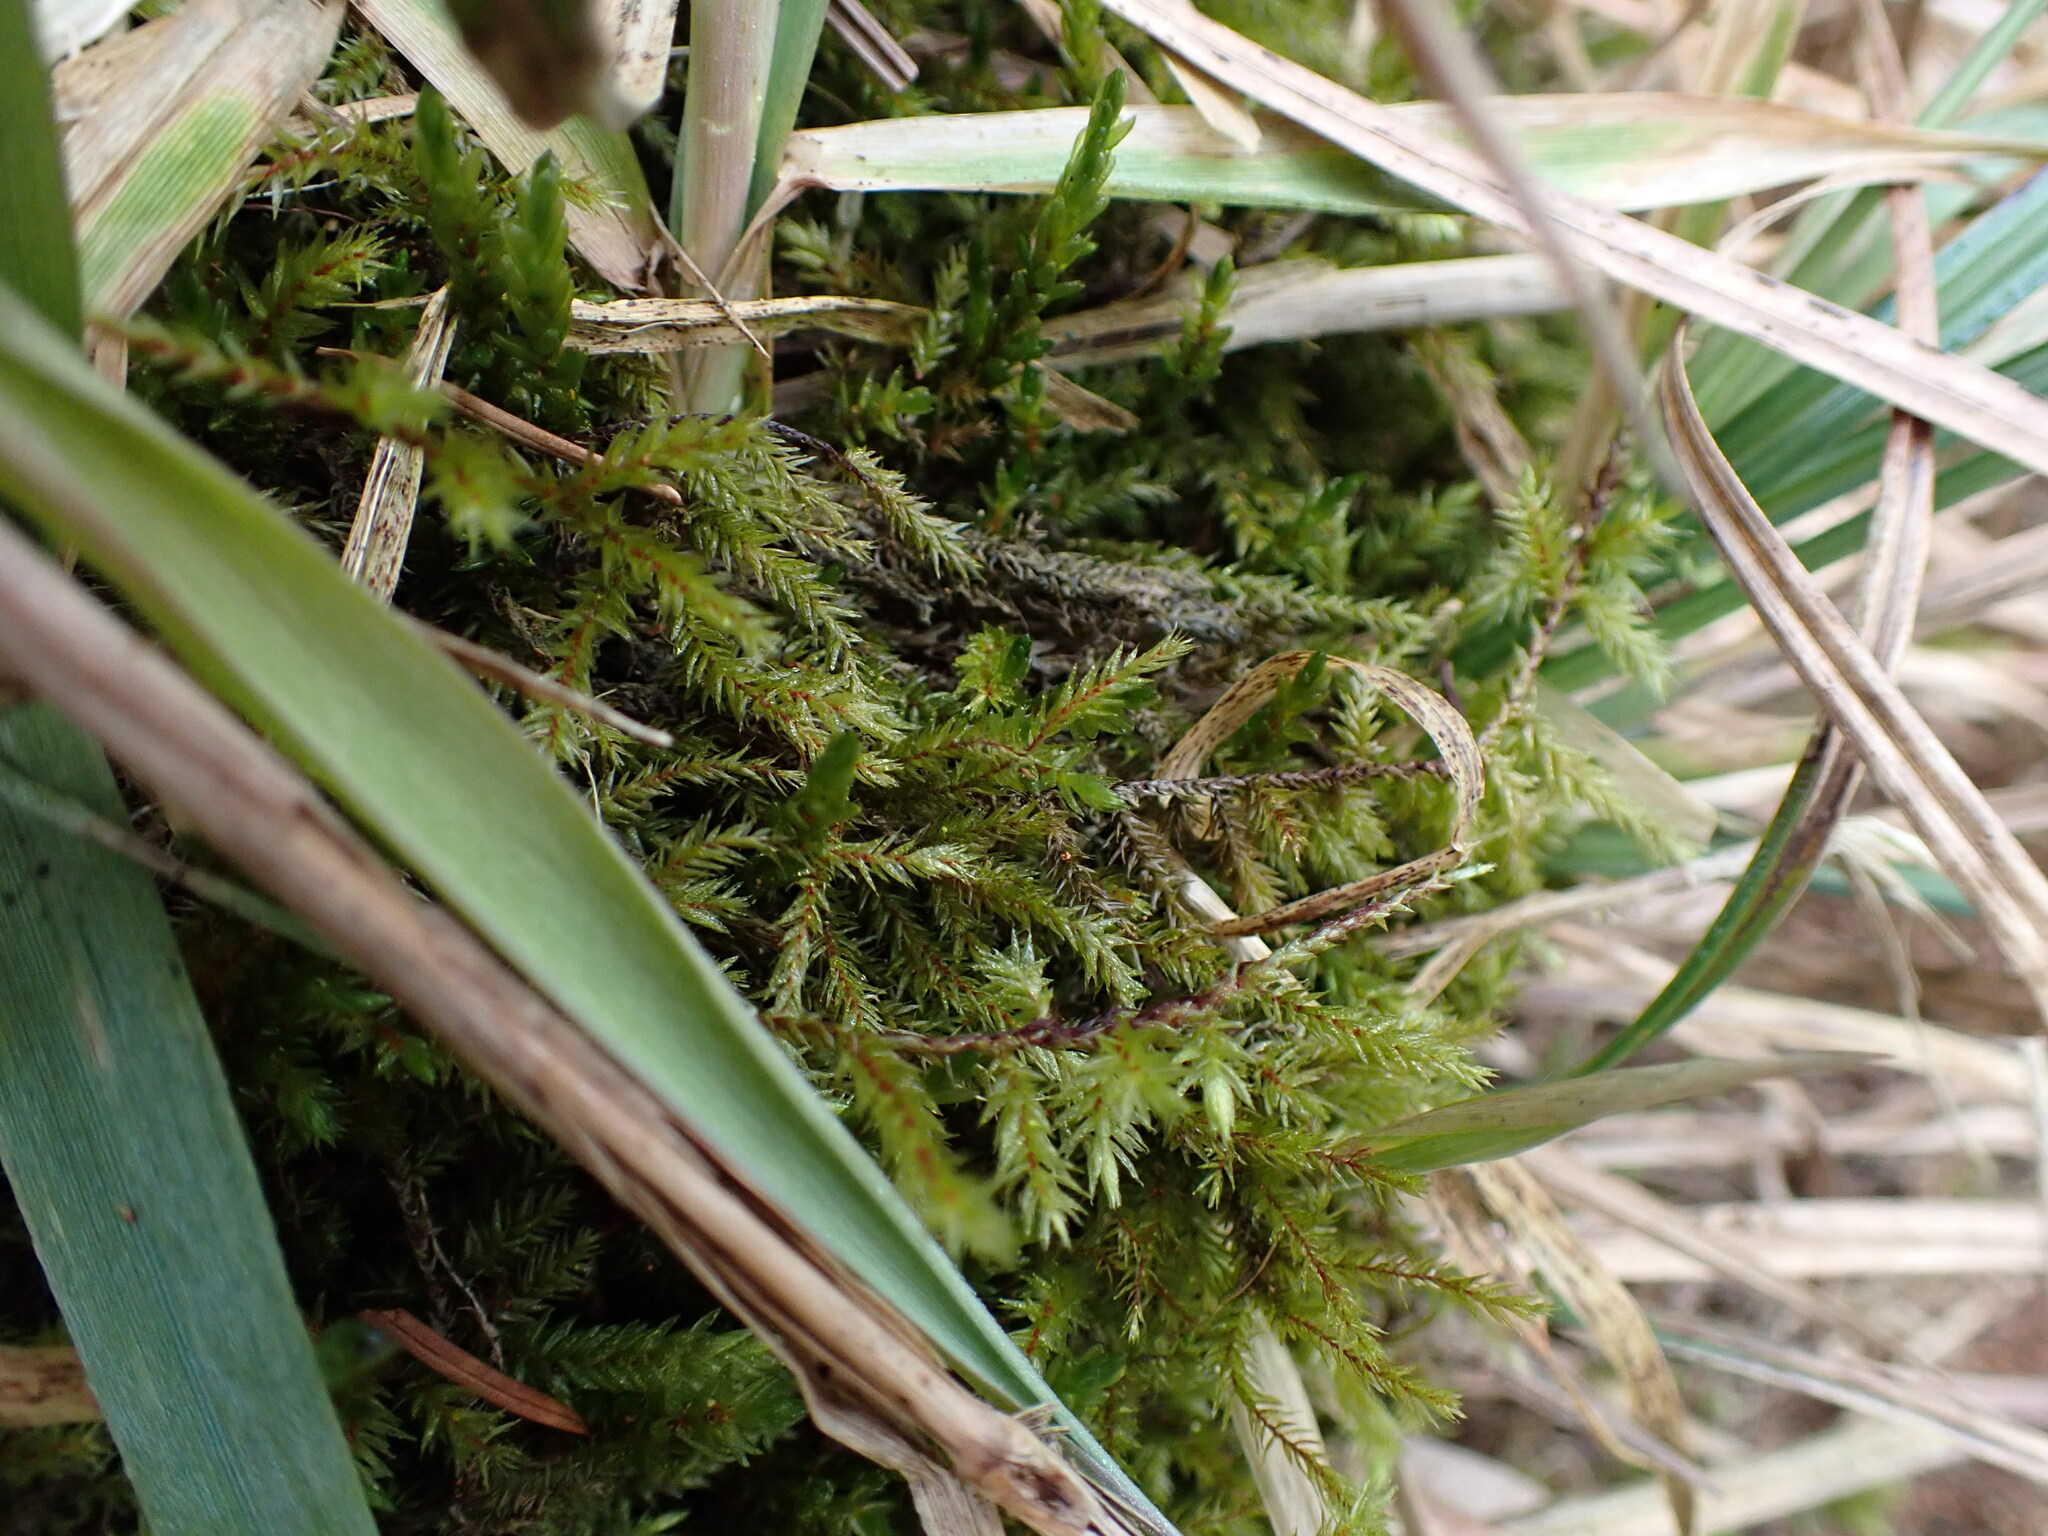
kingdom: Plantae
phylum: Bryophyta
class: Bryopsida
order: Hypnales
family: Climaciaceae
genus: Climacium
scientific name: Climacium dendroides
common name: Northern tree moss
